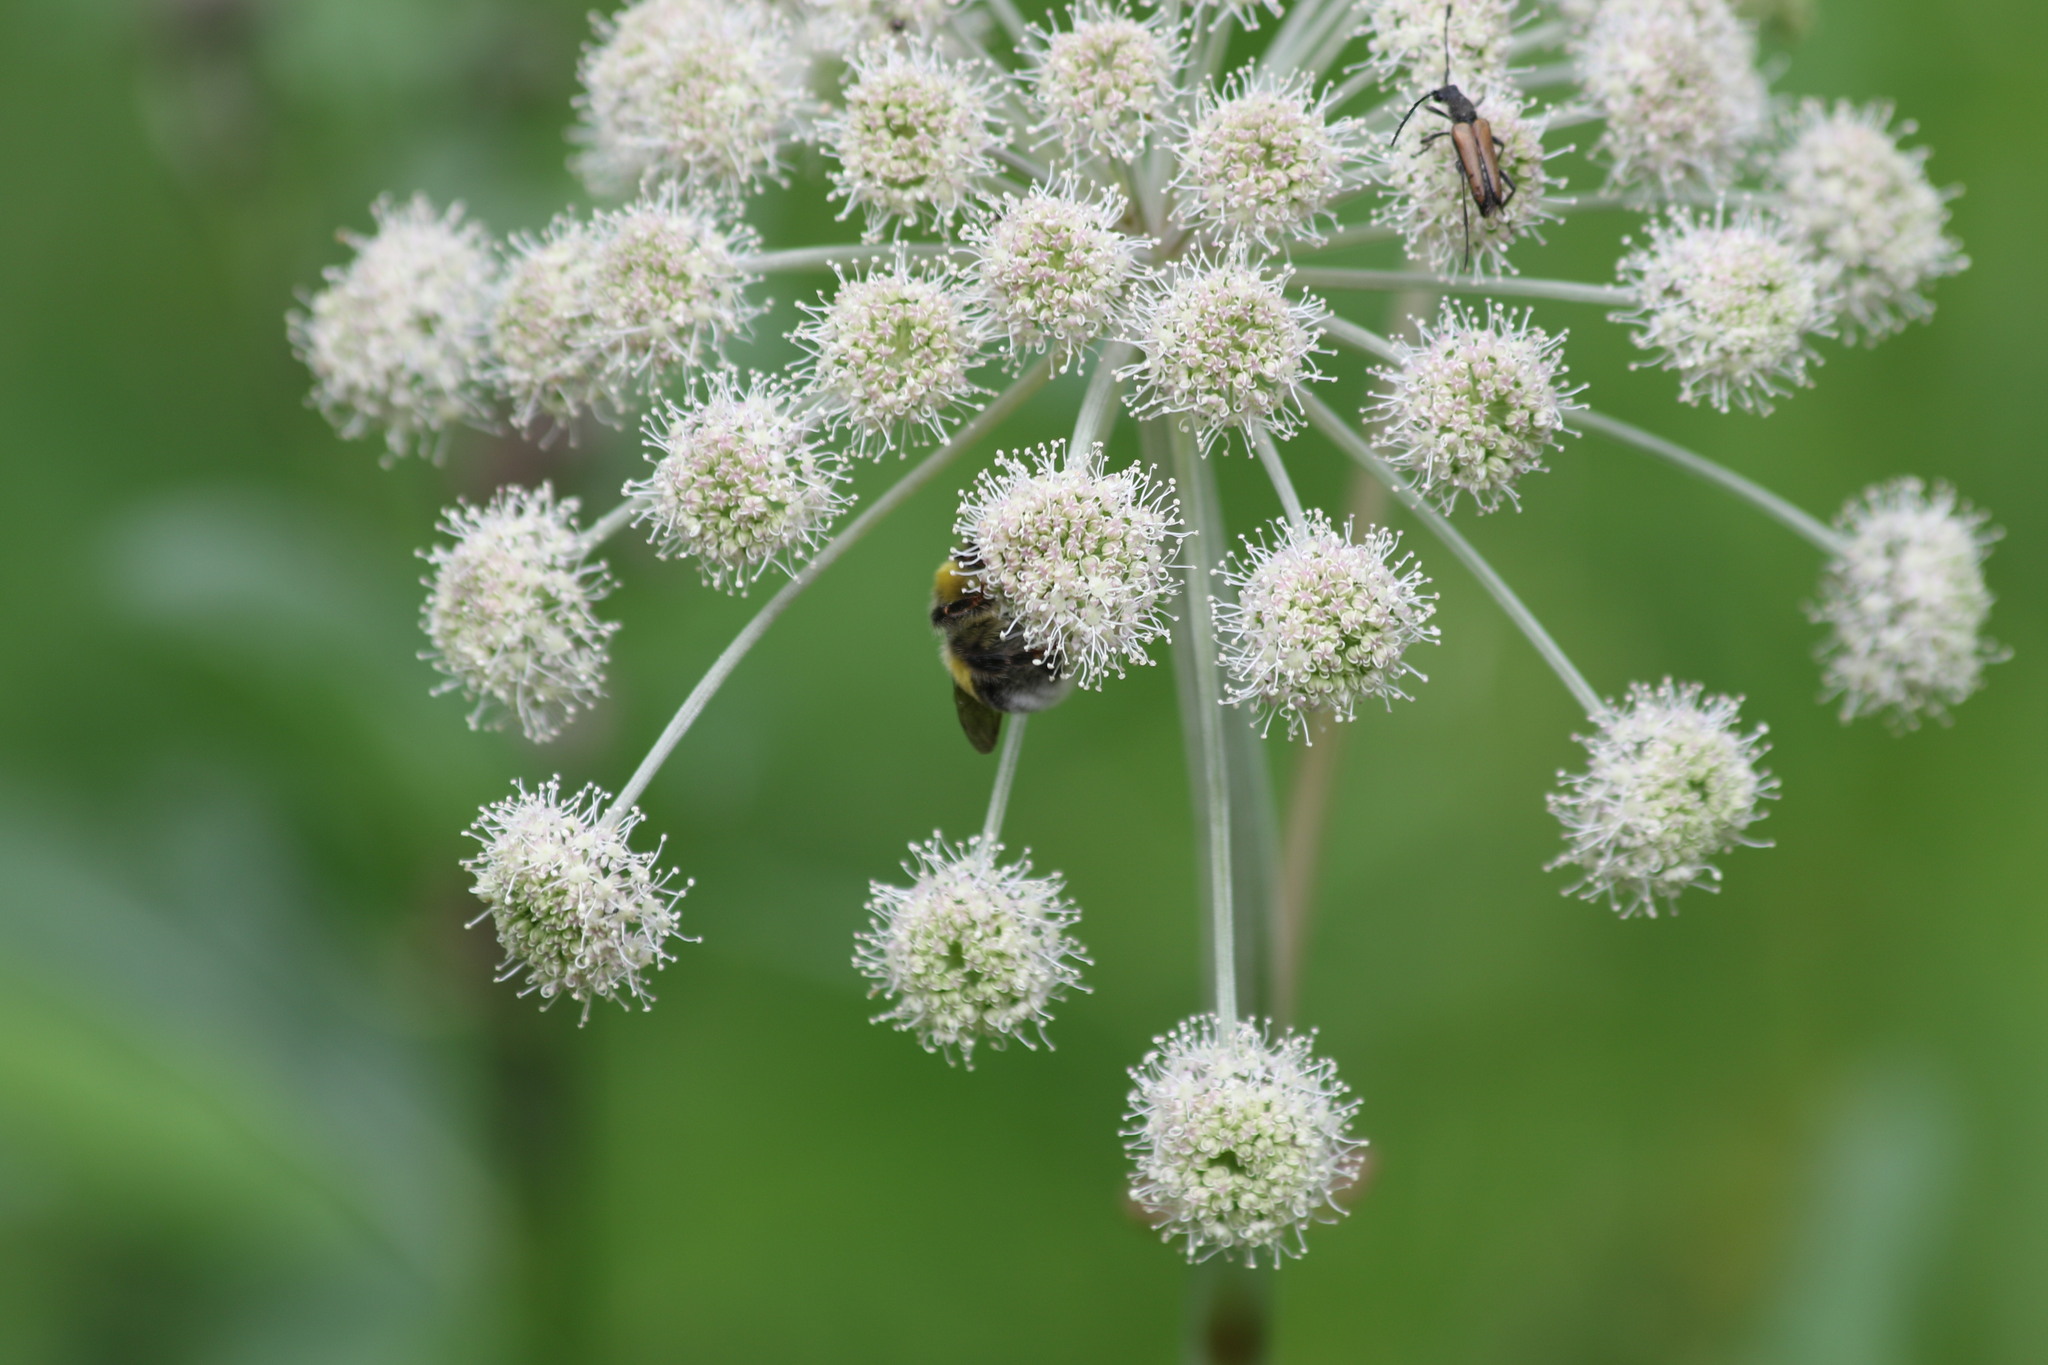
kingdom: Animalia
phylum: Arthropoda
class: Insecta
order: Hymenoptera
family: Apidae
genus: Bombus
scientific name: Bombus lucorum
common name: White-tailed bumblebee
